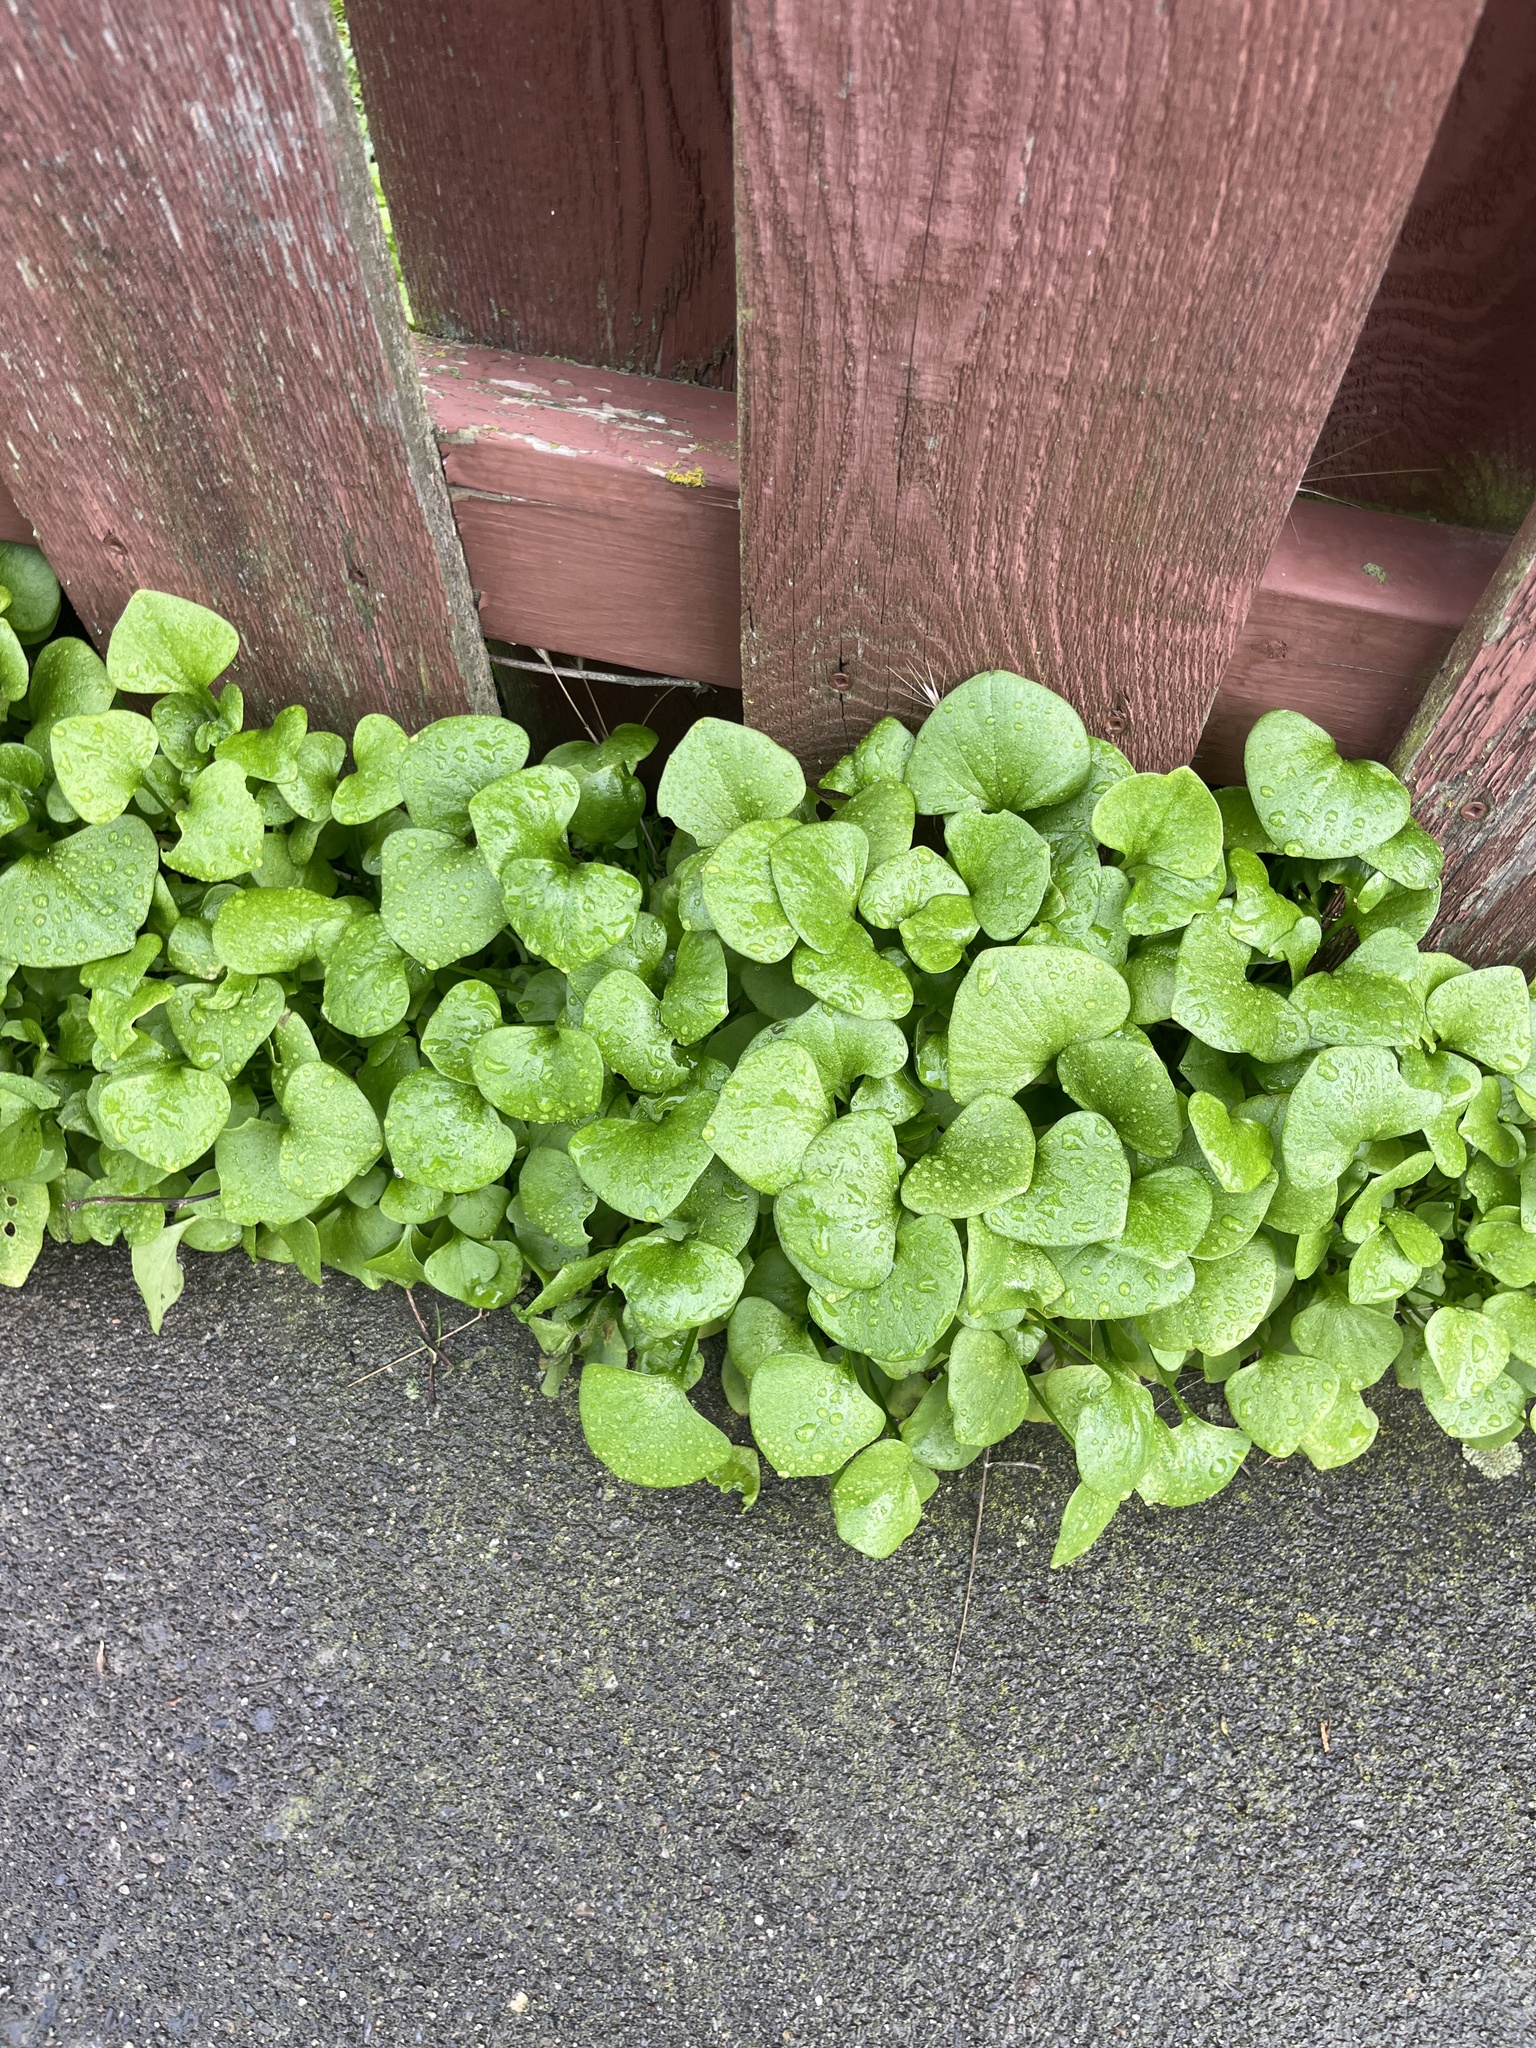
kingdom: Plantae
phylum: Tracheophyta
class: Magnoliopsida
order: Caryophyllales
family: Montiaceae
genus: Claytonia
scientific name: Claytonia perfoliata
